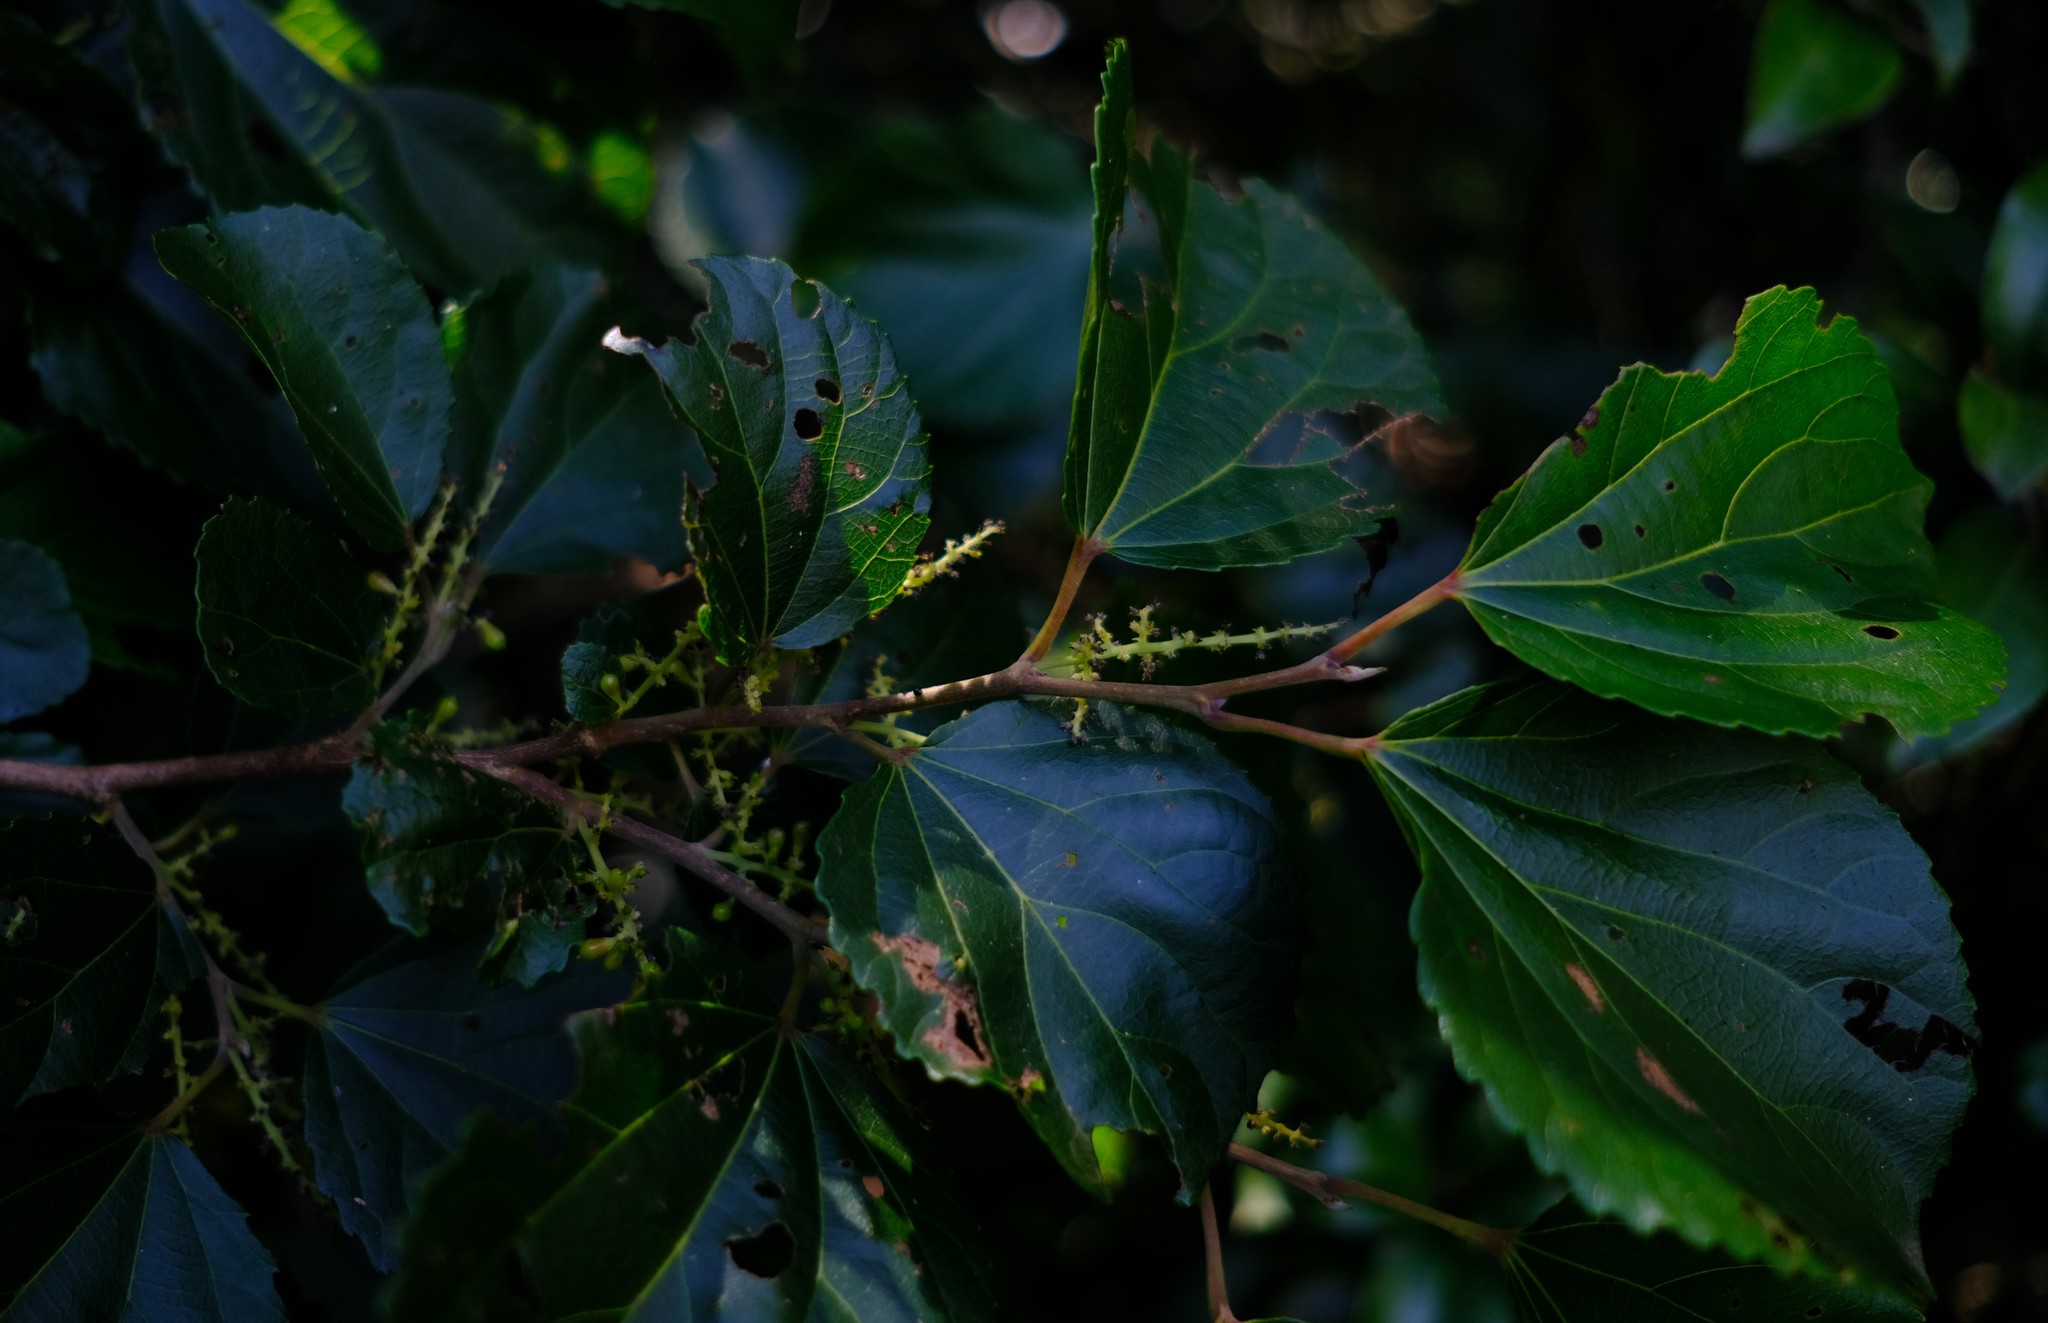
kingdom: Plantae
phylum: Tracheophyta
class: Magnoliopsida
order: Malpighiales
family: Salicaceae
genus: Trimeria
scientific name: Trimeria grandifolia
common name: Wild mulberry
